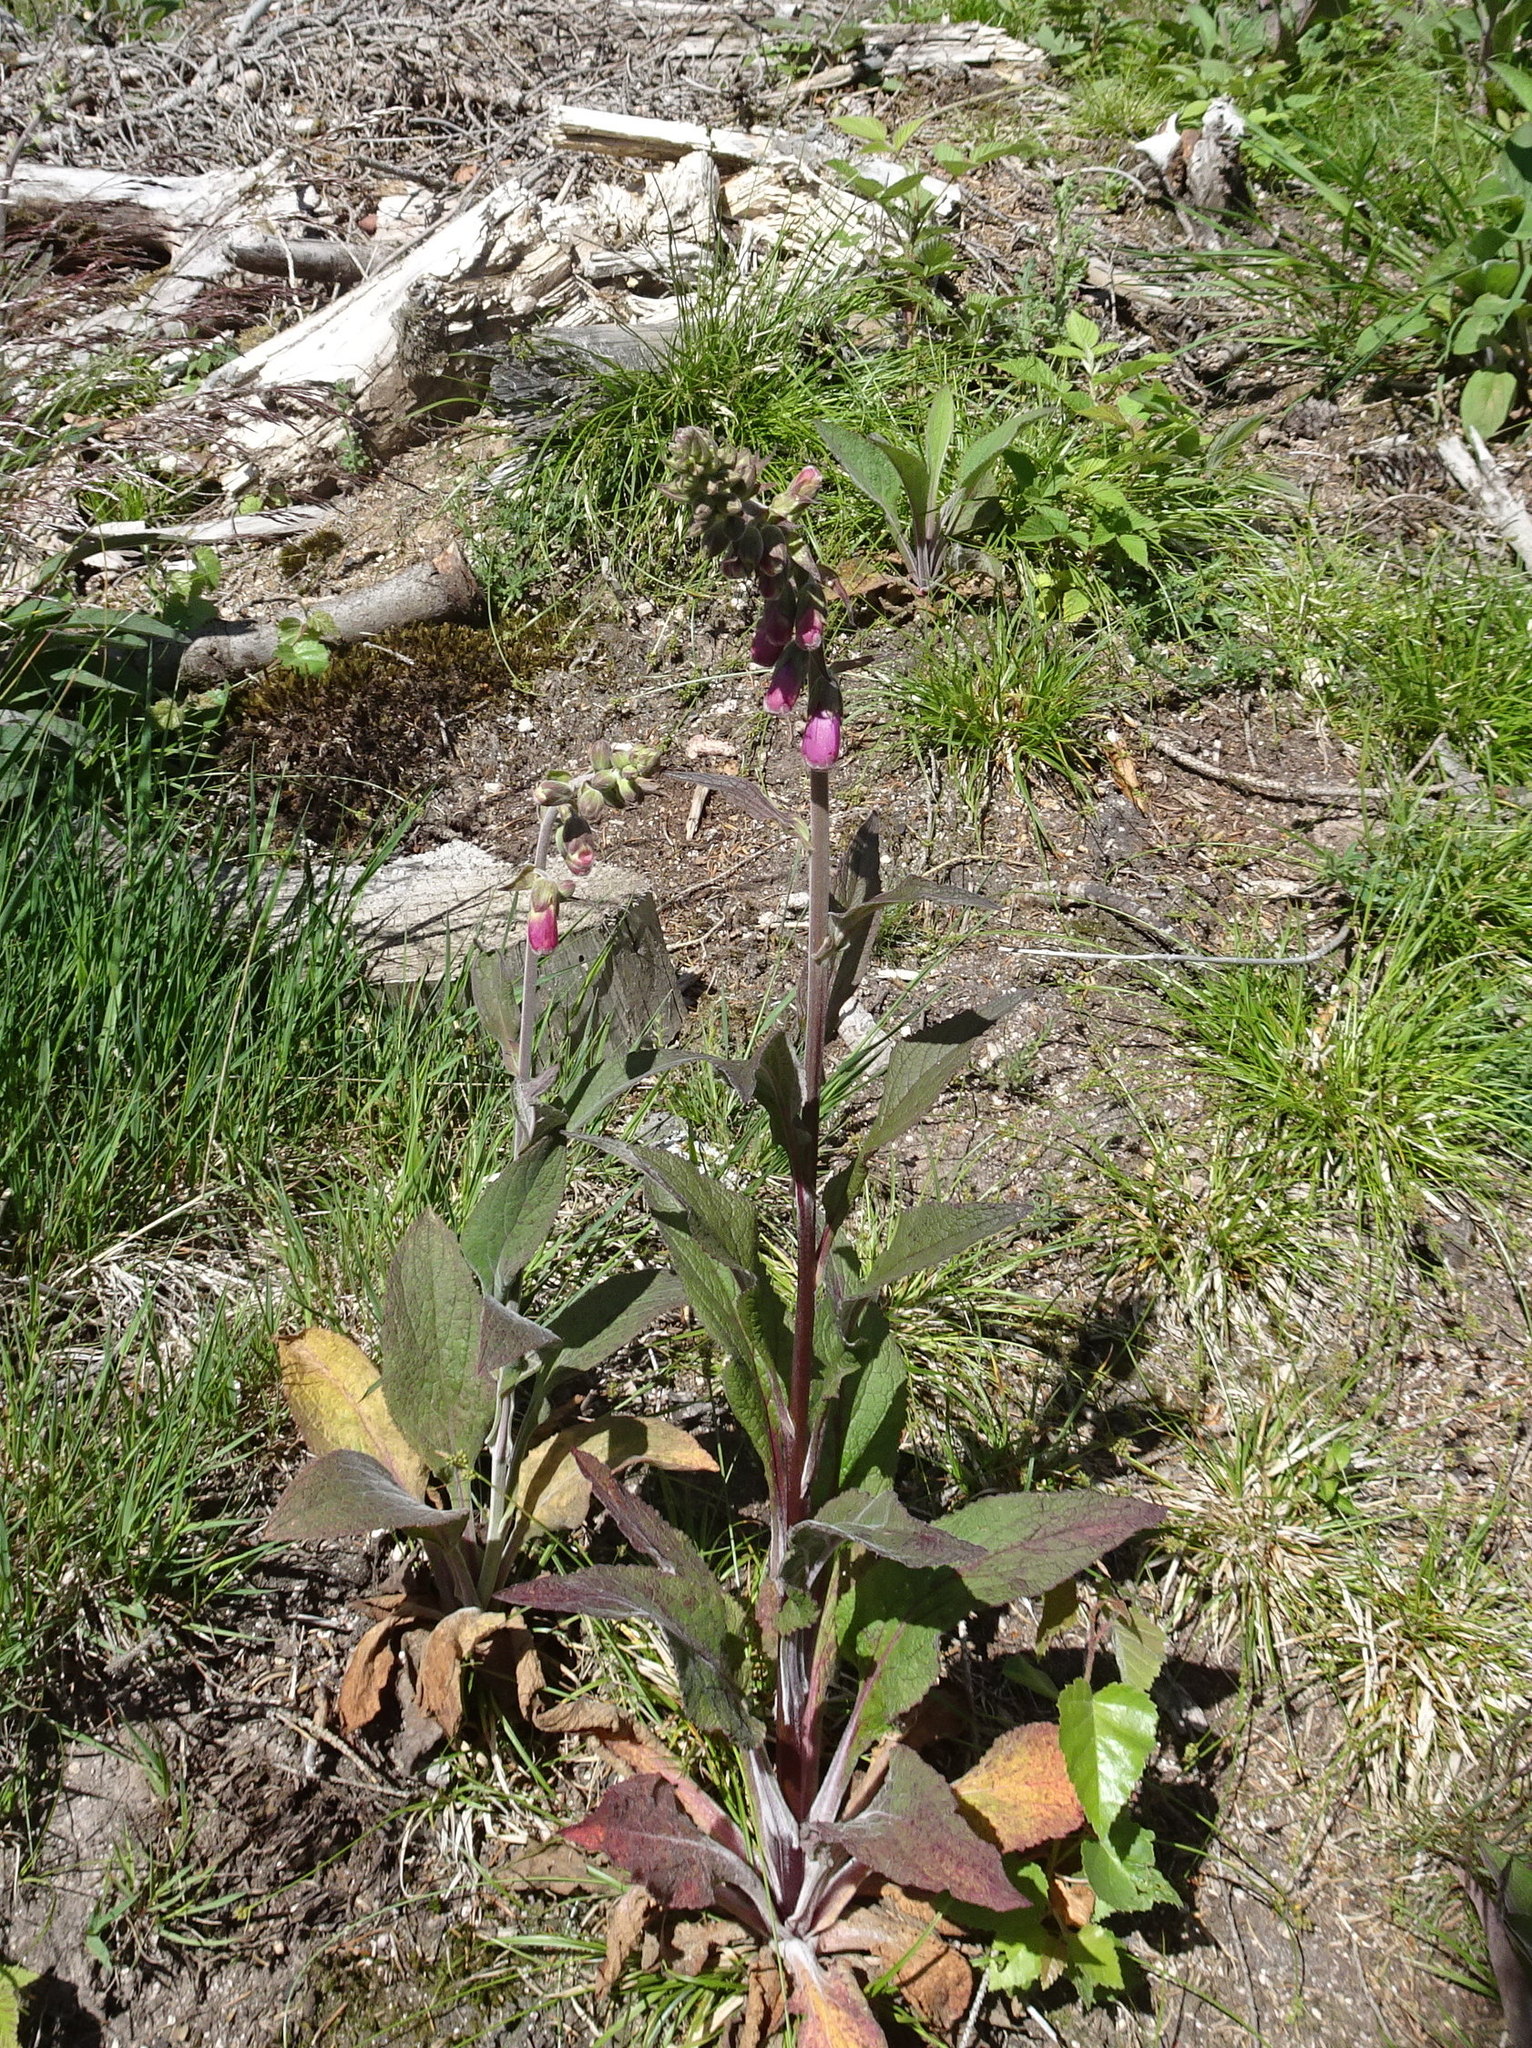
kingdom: Plantae
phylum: Tracheophyta
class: Magnoliopsida
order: Lamiales
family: Plantaginaceae
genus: Digitalis
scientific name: Digitalis purpurea
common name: Foxglove
